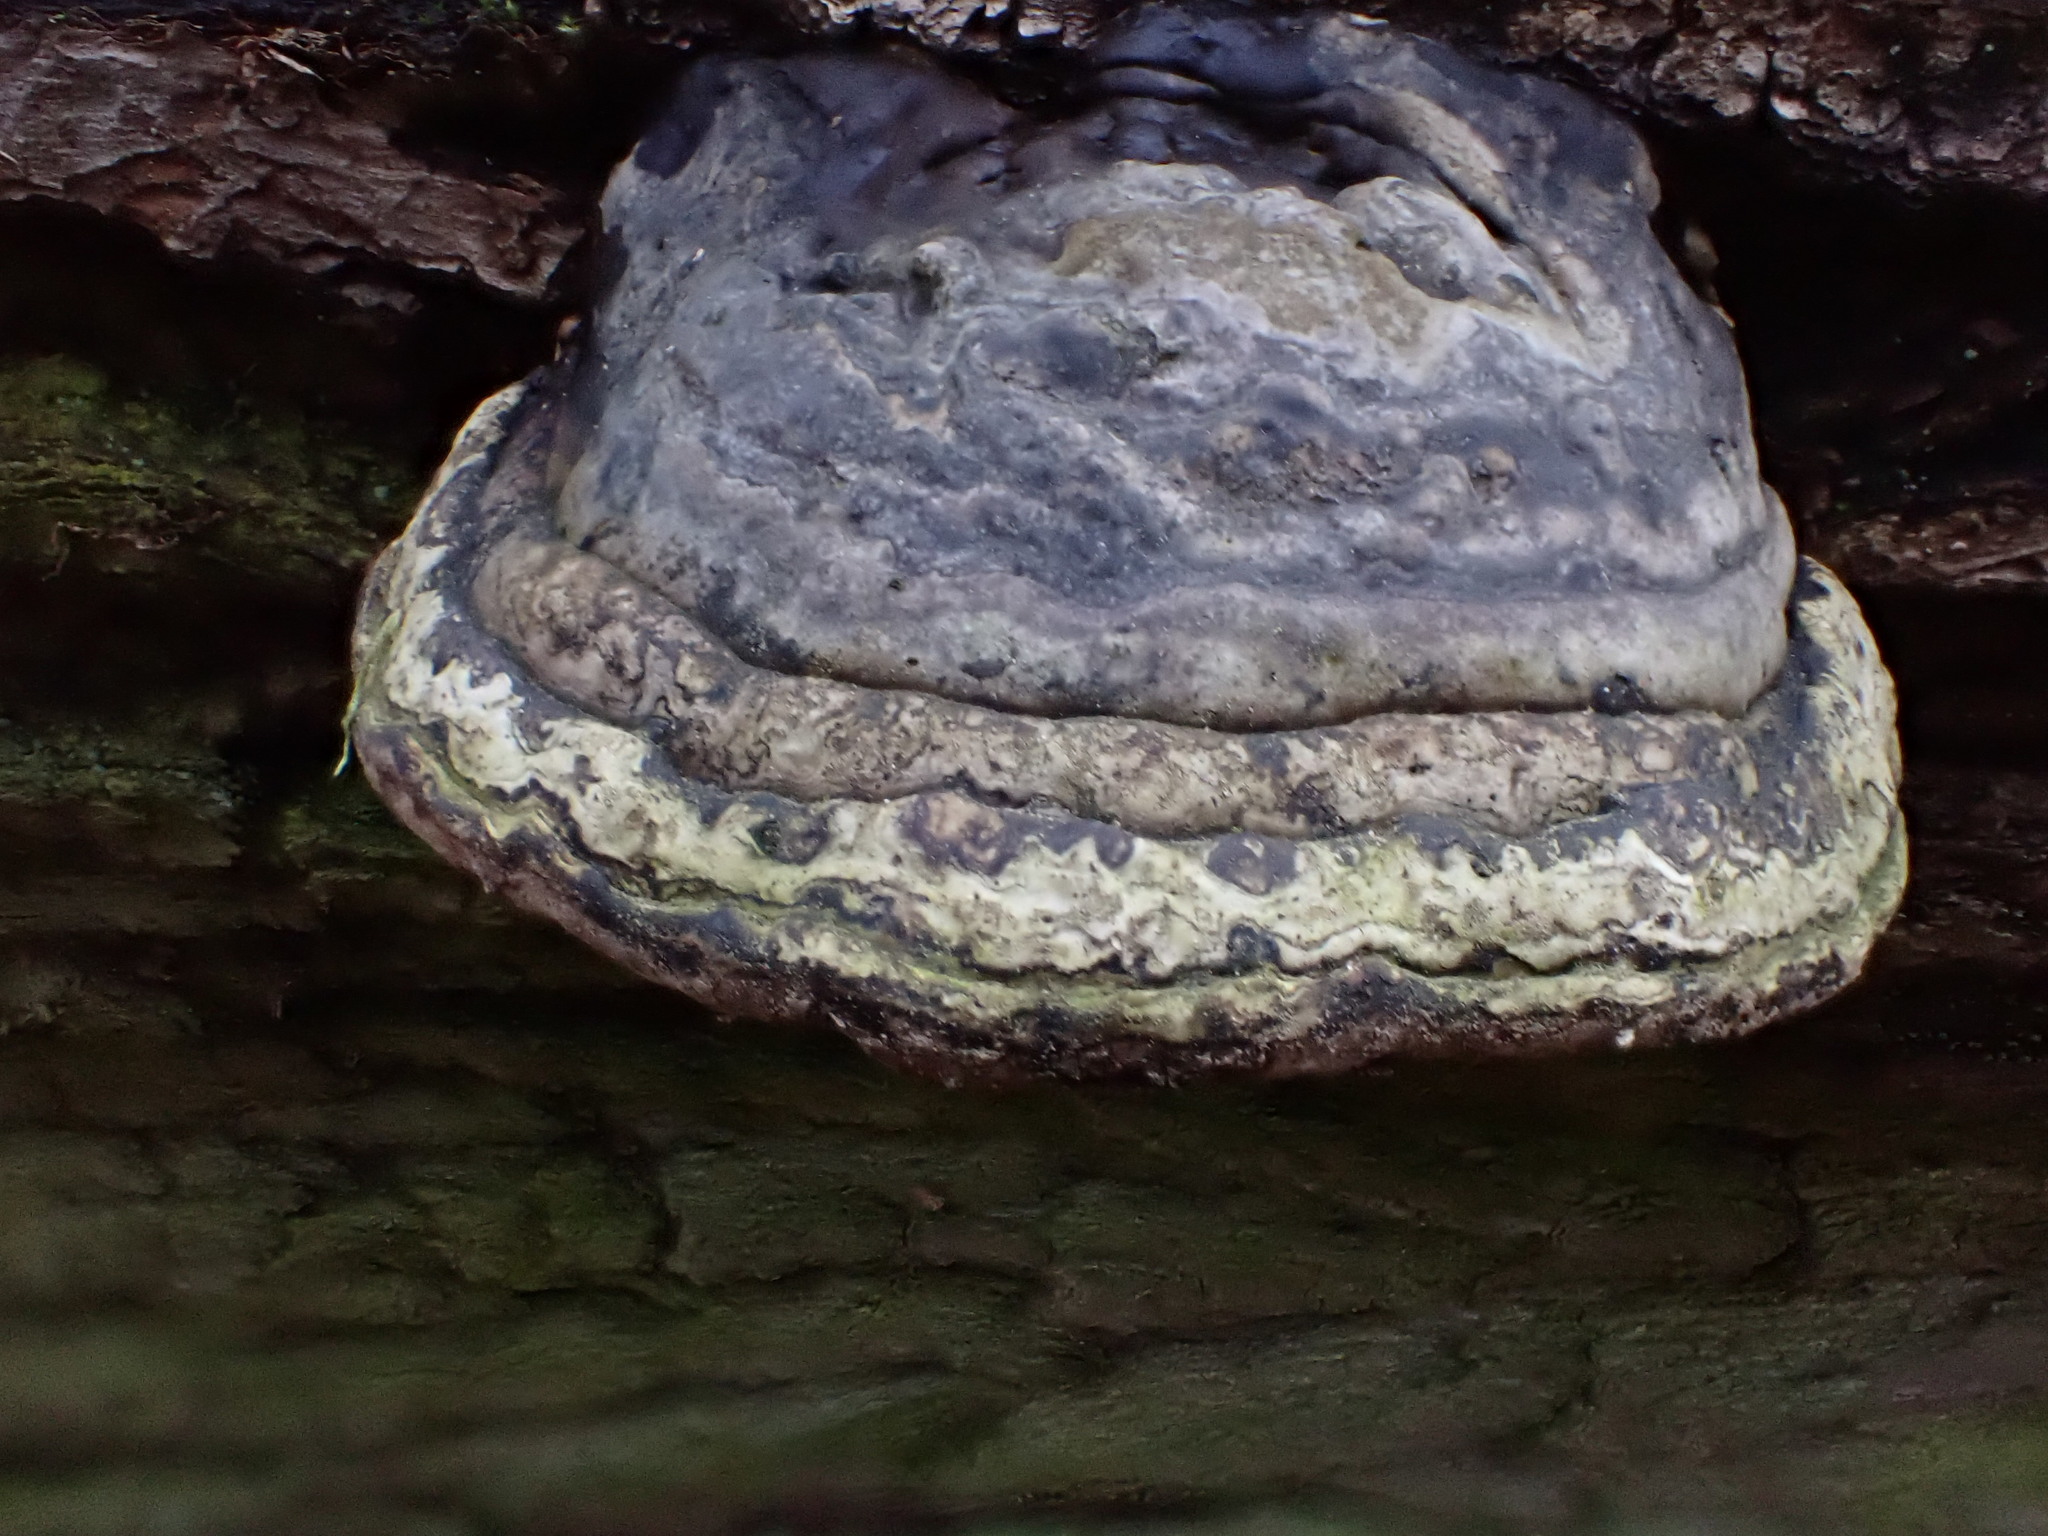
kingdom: Fungi
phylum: Basidiomycota
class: Agaricomycetes
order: Polyporales
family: Polyporaceae
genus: Fomes
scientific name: Fomes fomentarius
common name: Hoof fungus
